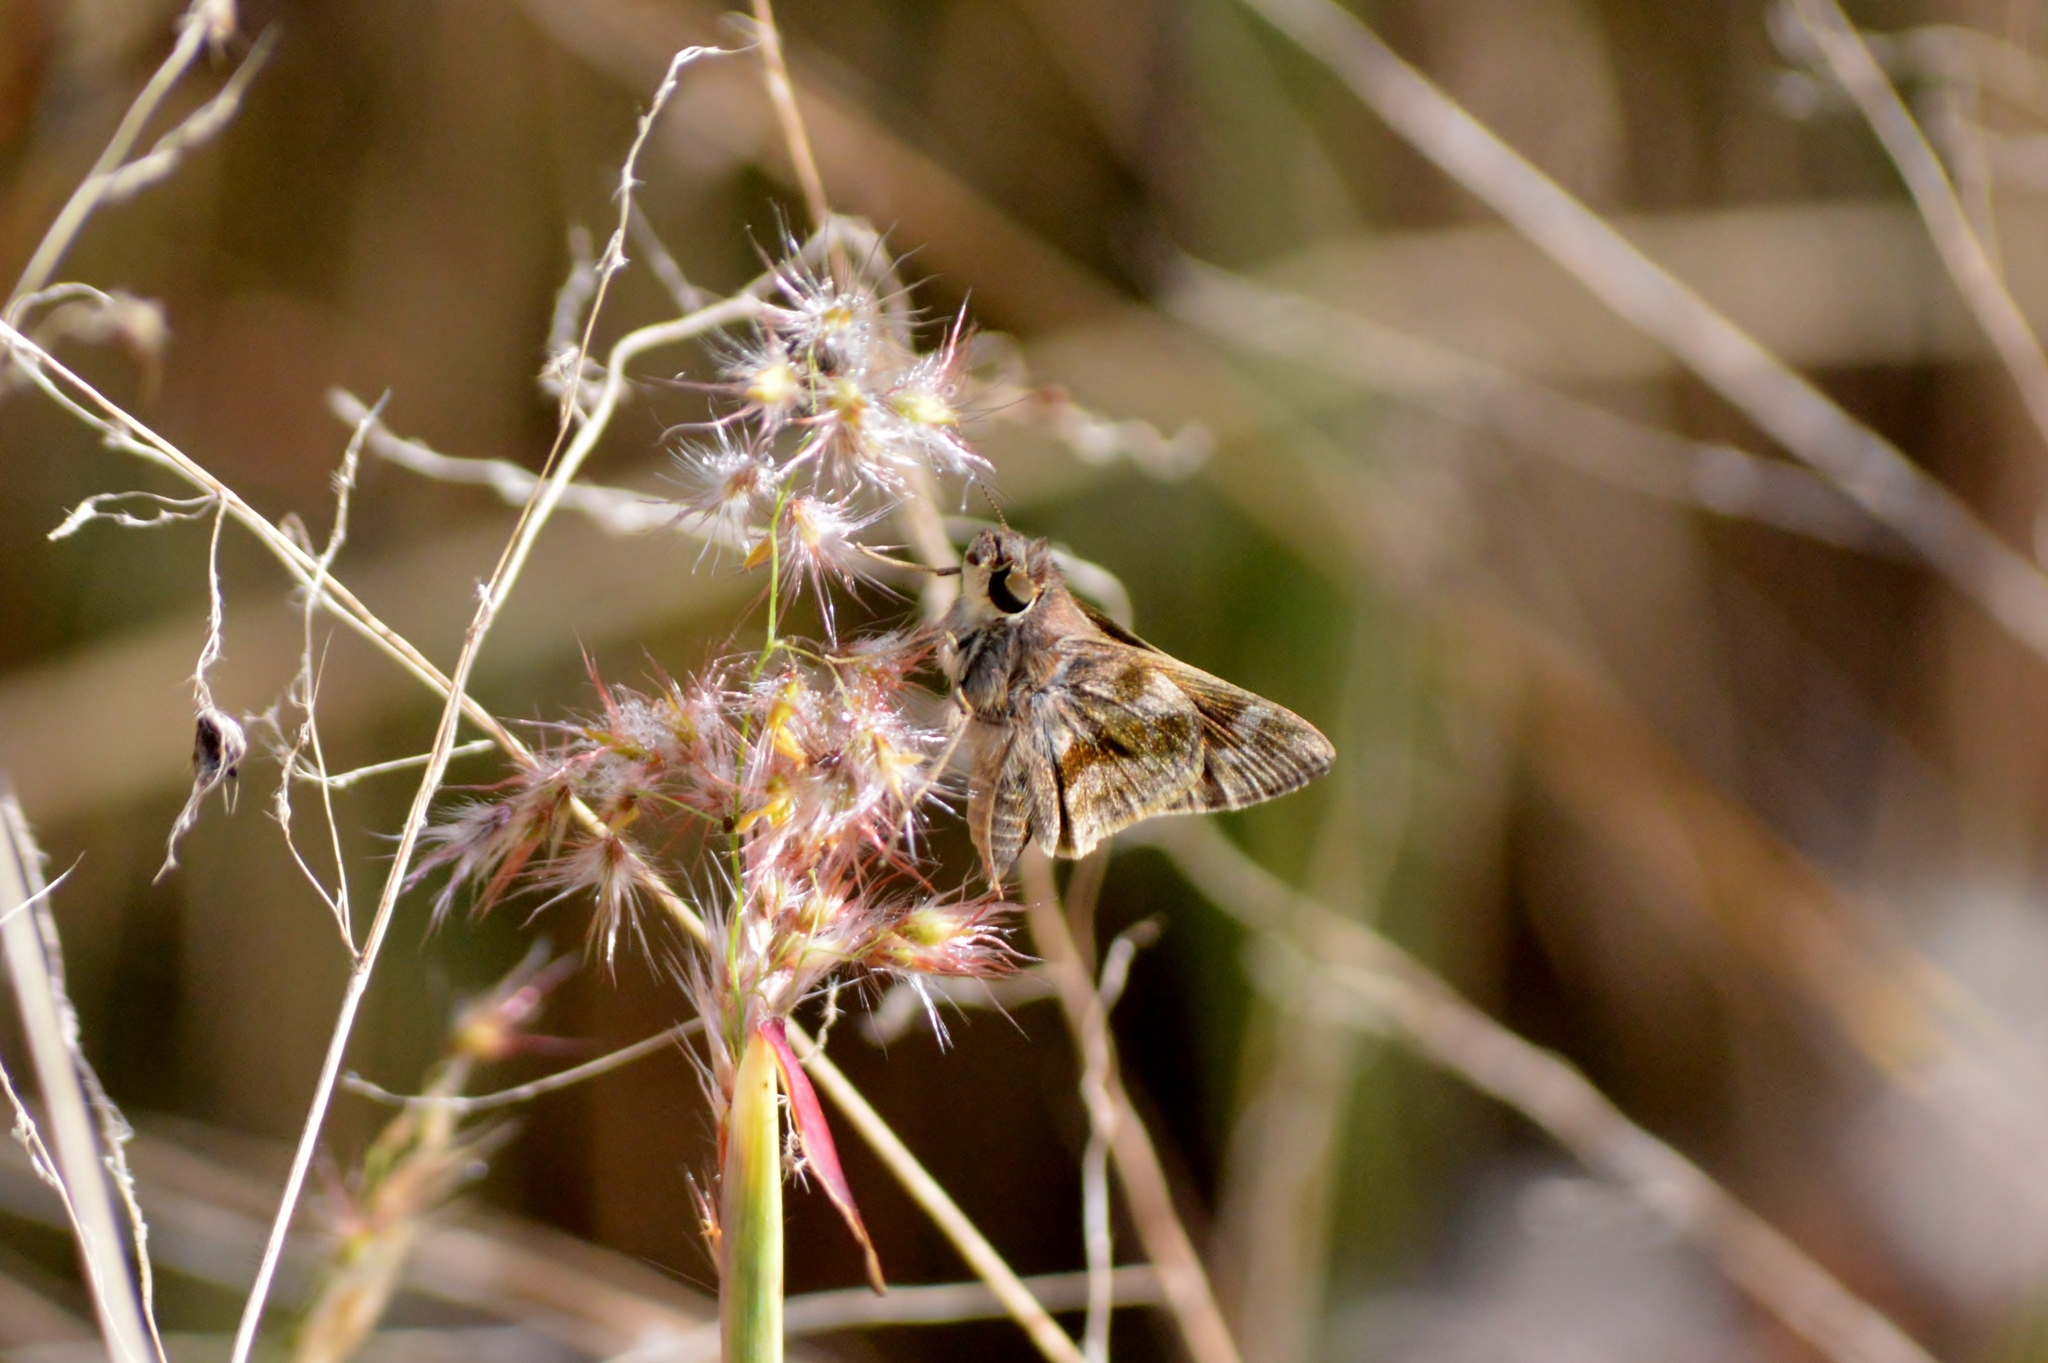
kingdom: Animalia
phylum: Arthropoda
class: Insecta
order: Lepidoptera
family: Hesperiidae
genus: Pompeius
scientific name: Pompeius pompeius
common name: Pompeius skipper
